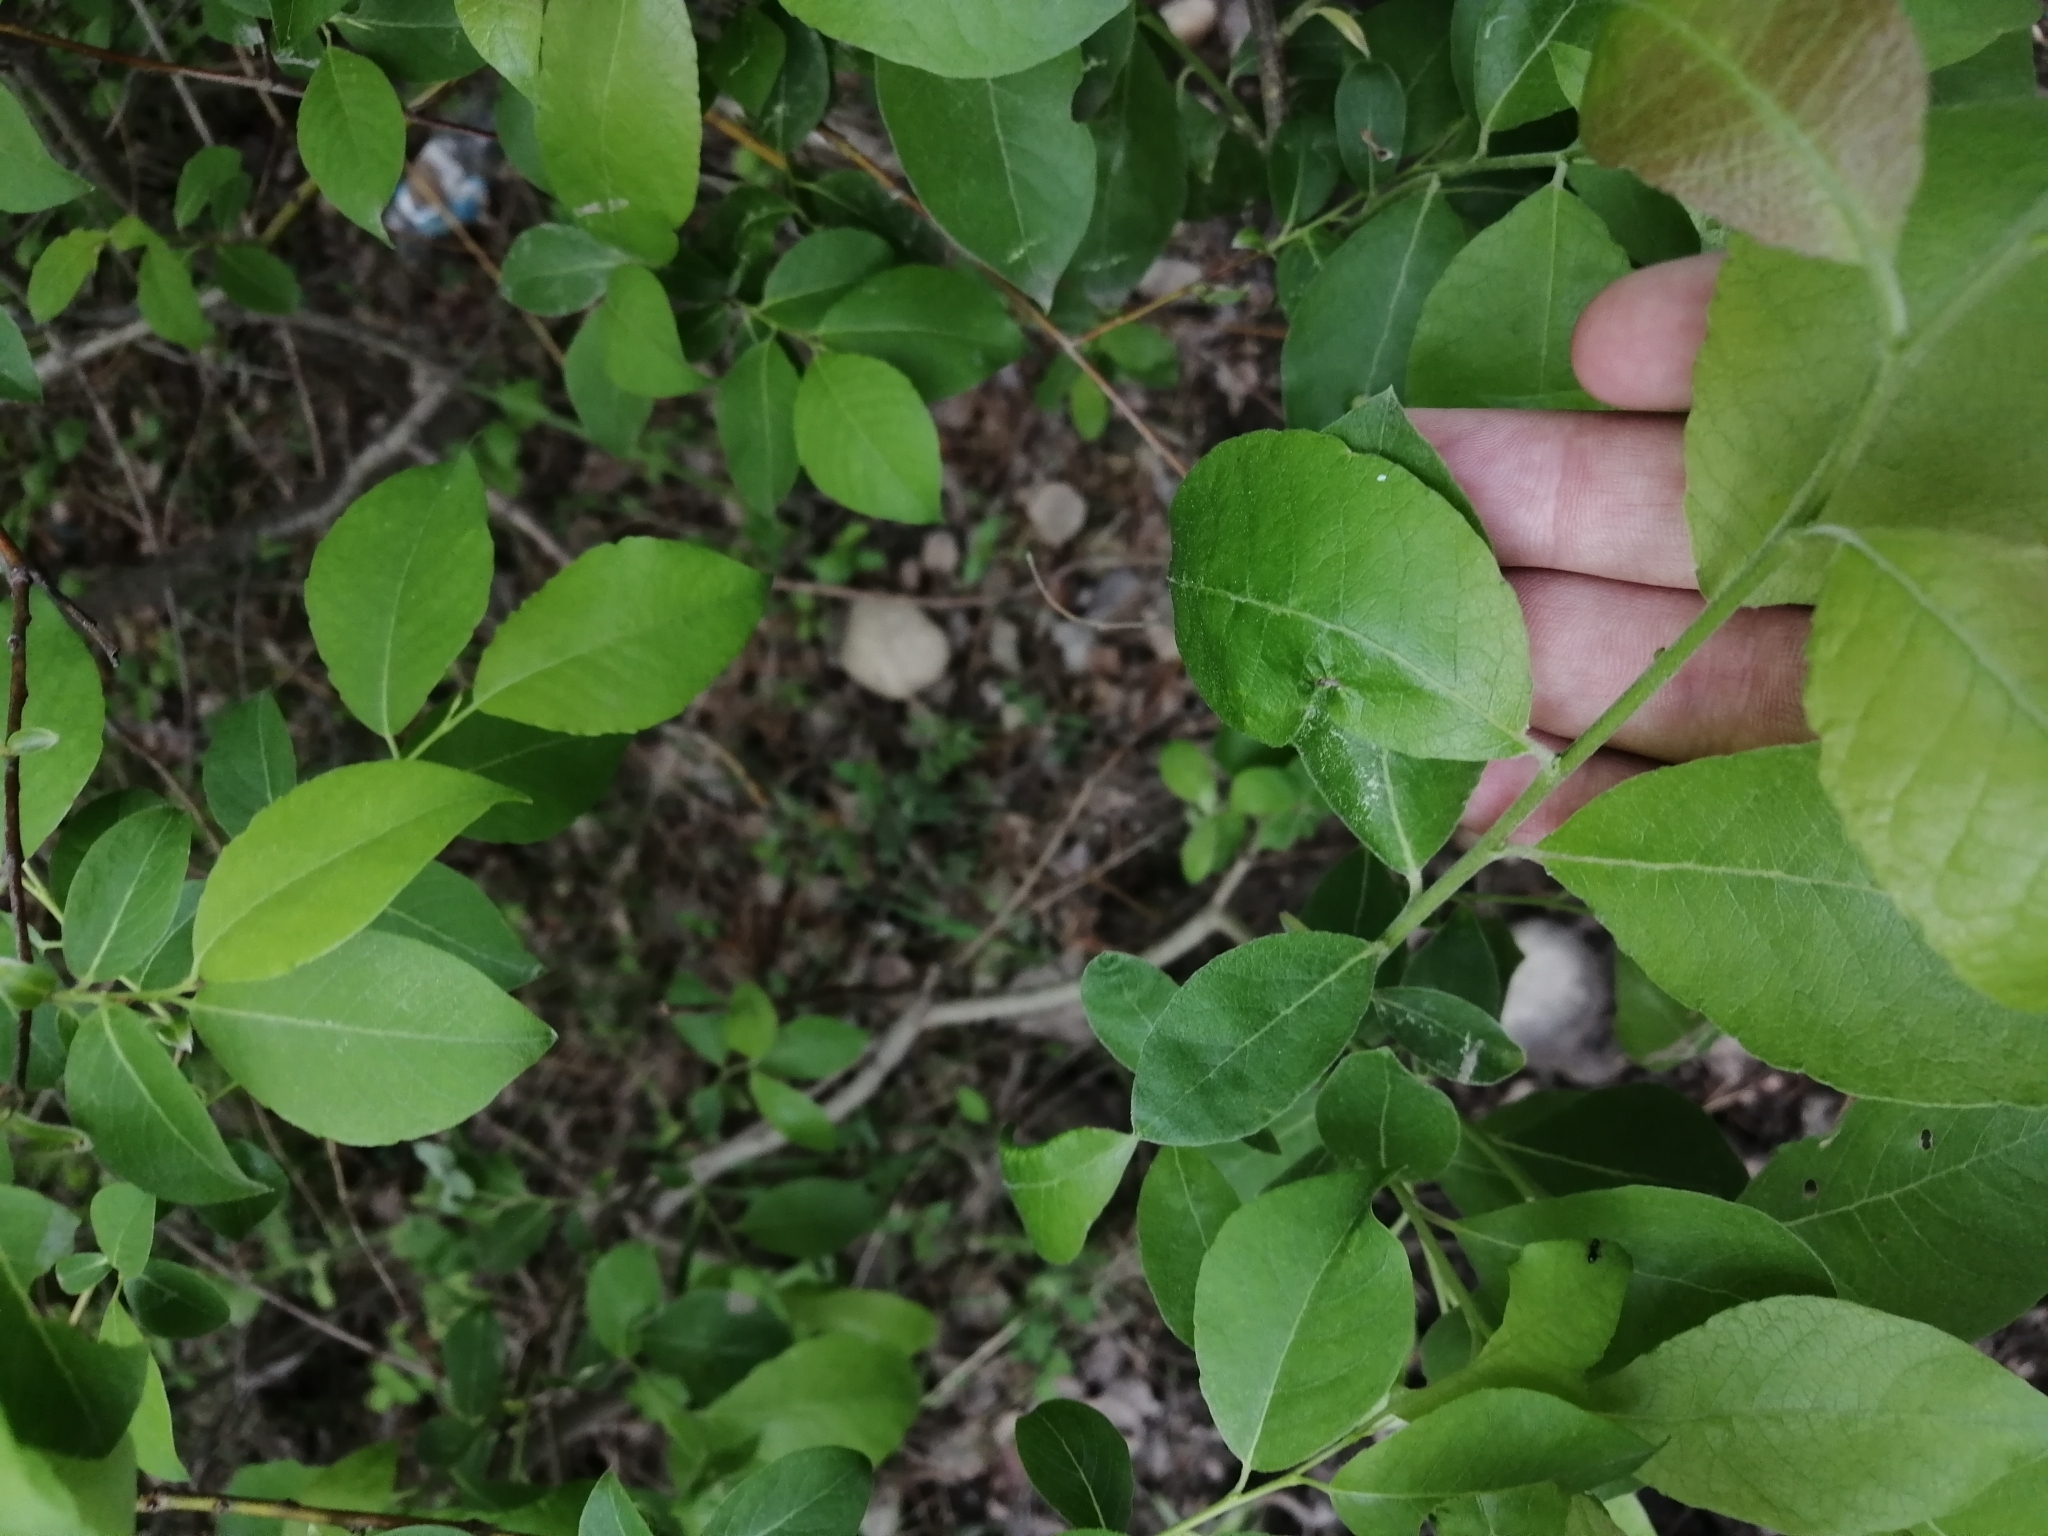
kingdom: Plantae
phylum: Tracheophyta
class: Magnoliopsida
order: Malpighiales
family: Salicaceae
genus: Salix
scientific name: Salix caprea
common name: Goat willow
